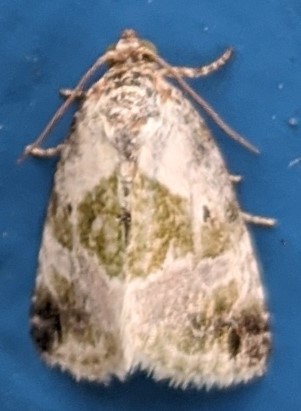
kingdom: Animalia
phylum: Arthropoda
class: Insecta
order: Lepidoptera
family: Noctuidae
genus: Maliattha
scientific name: Maliattha synochitis
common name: Black-dotted glyph
